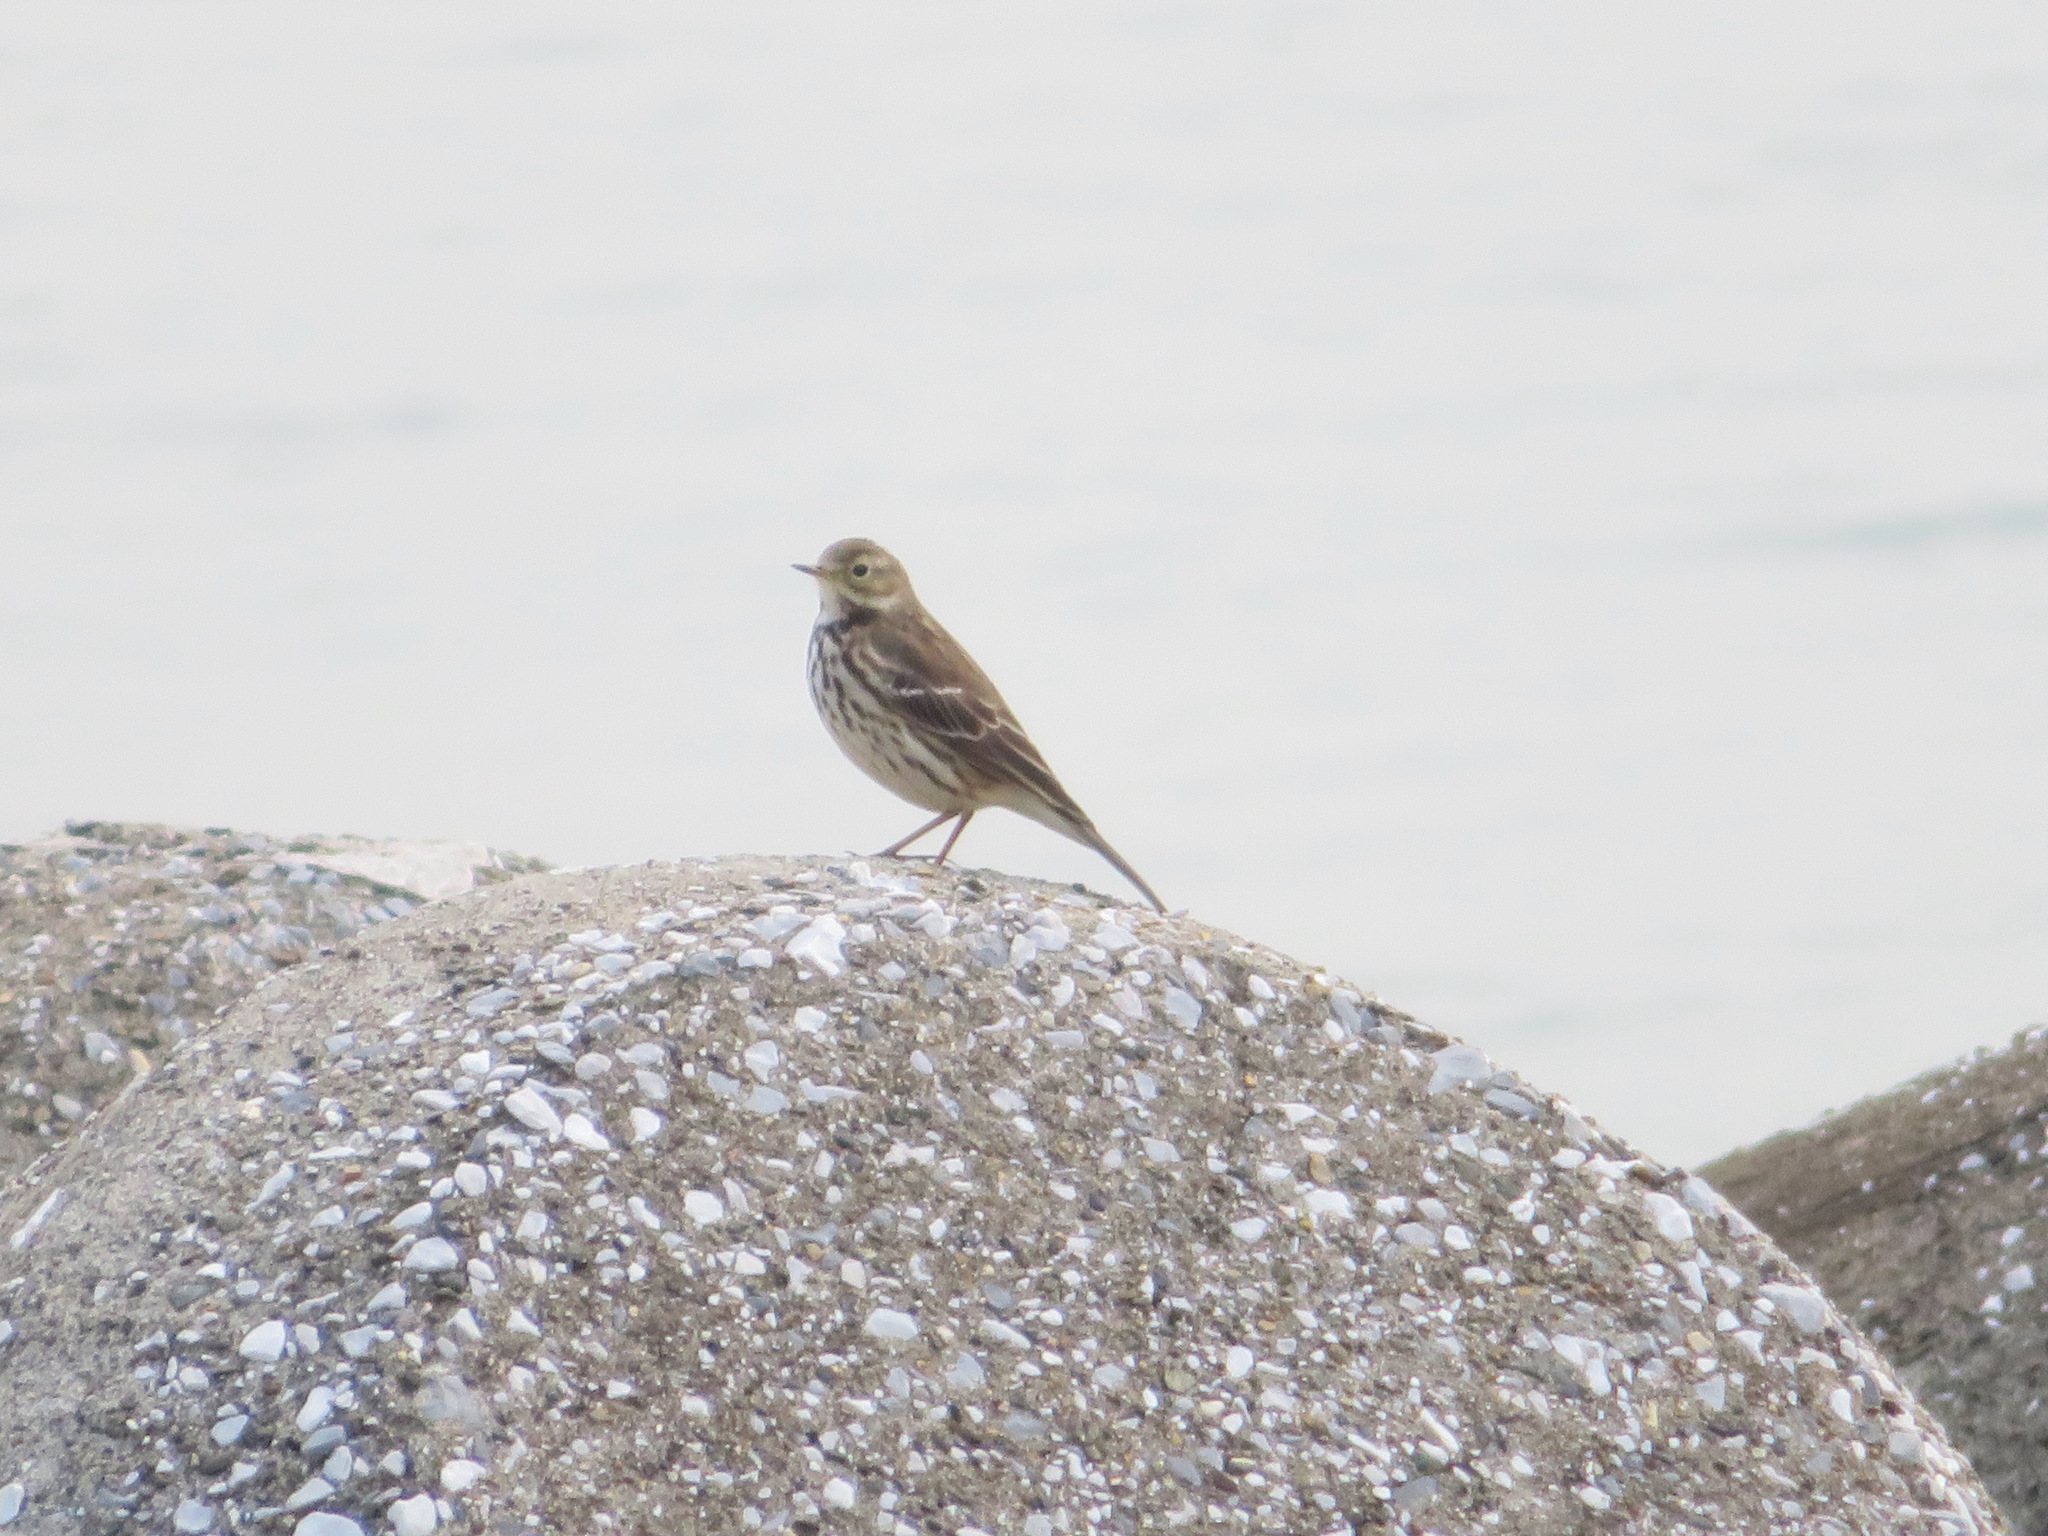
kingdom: Animalia
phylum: Chordata
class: Aves
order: Passeriformes
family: Motacillidae
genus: Anthus
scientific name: Anthus rubescens
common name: Buff-bellied pipit
